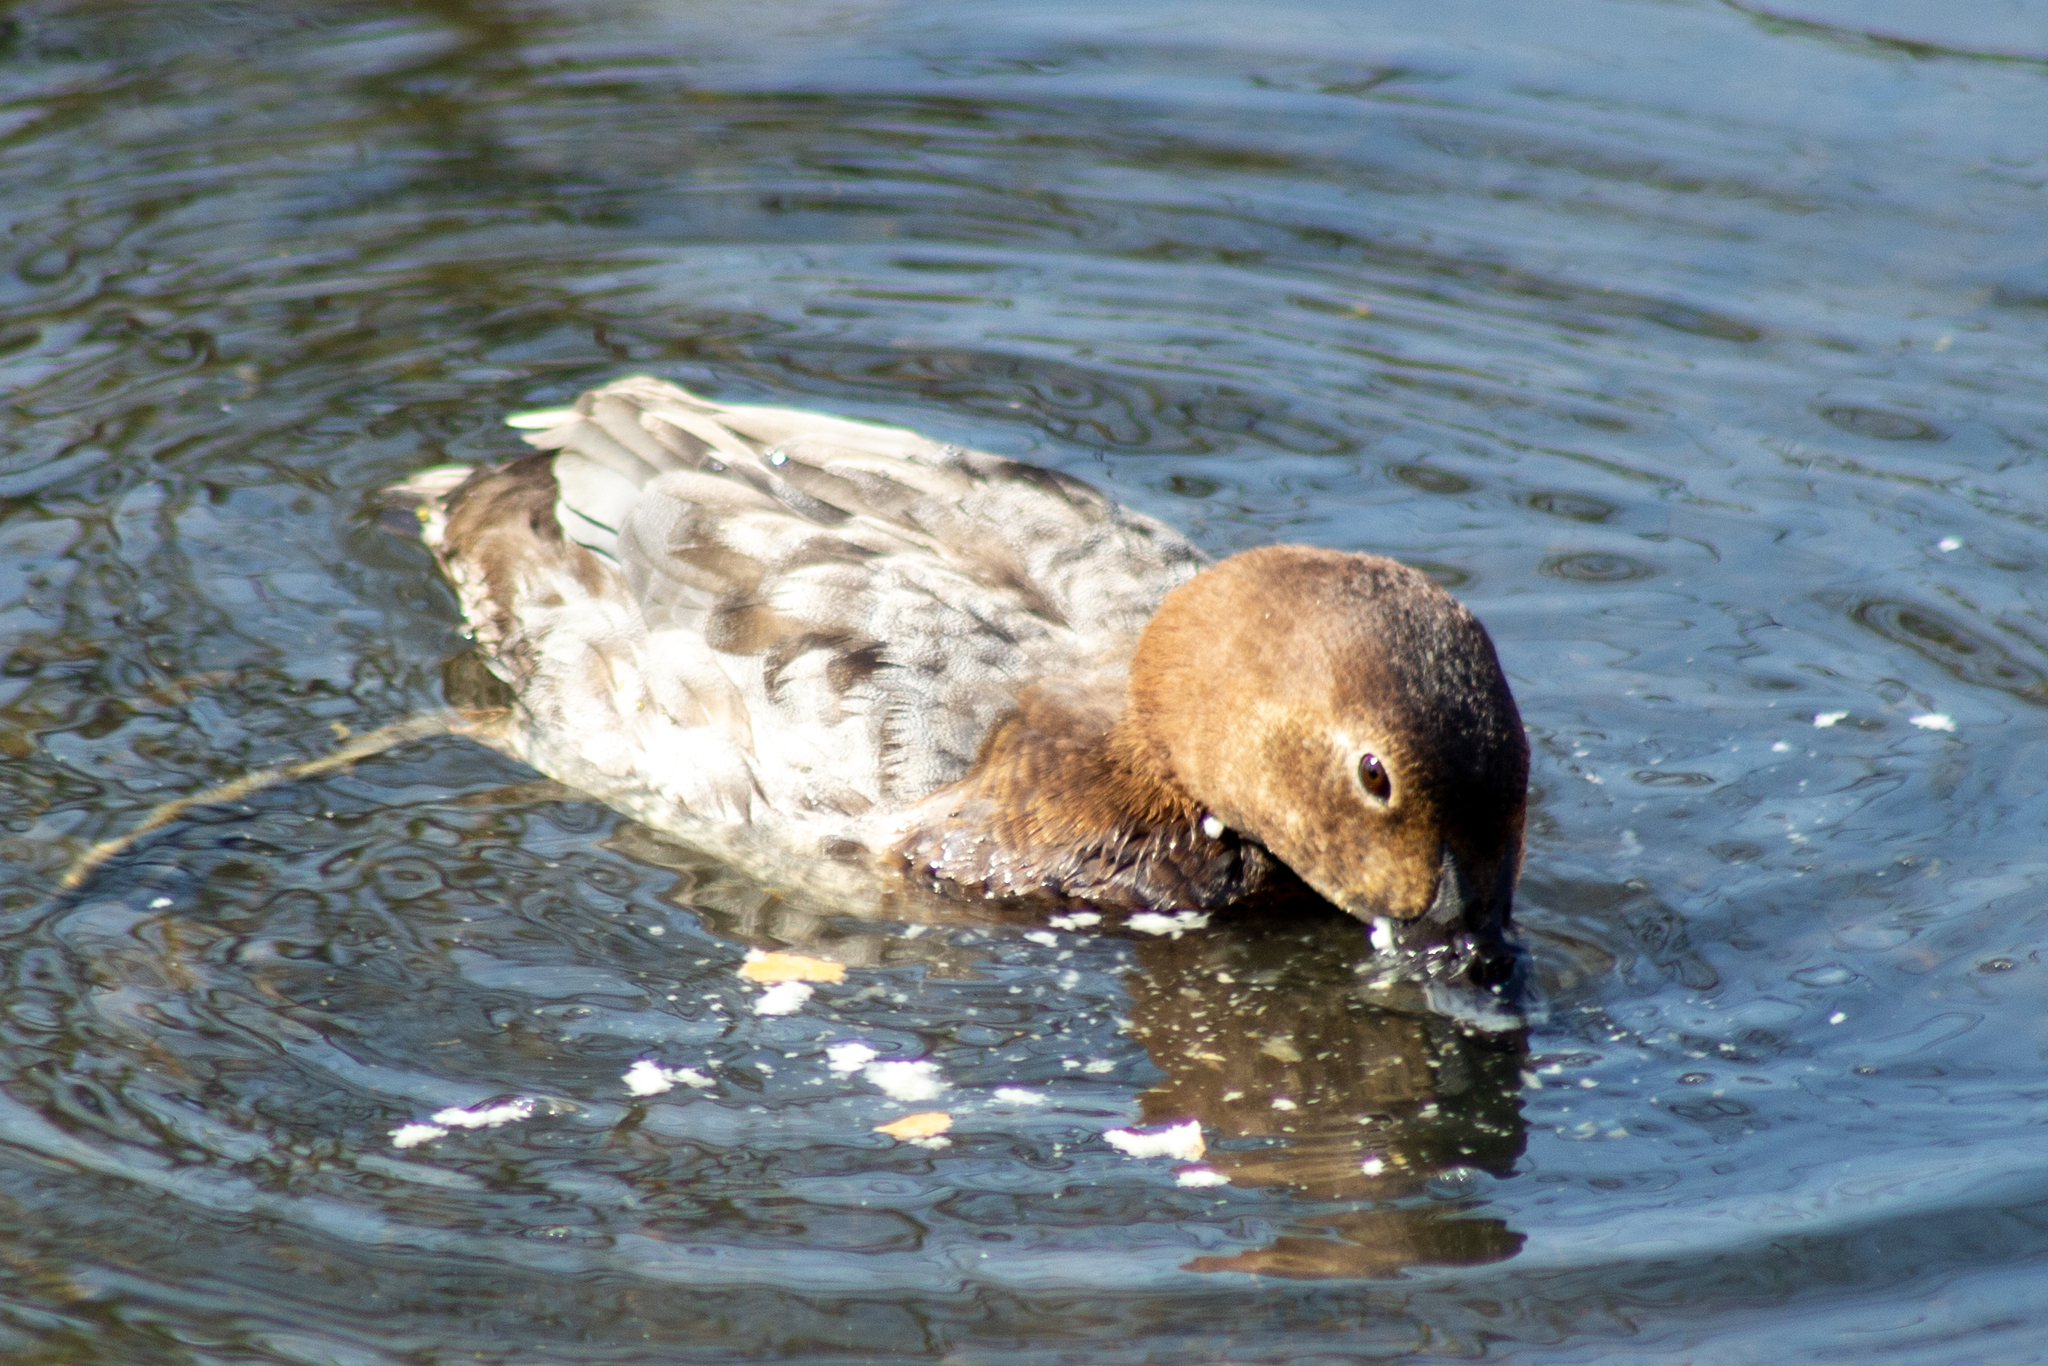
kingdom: Animalia
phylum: Chordata
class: Aves
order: Anseriformes
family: Anatidae
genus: Aythya
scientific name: Aythya ferina
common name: Common pochard
